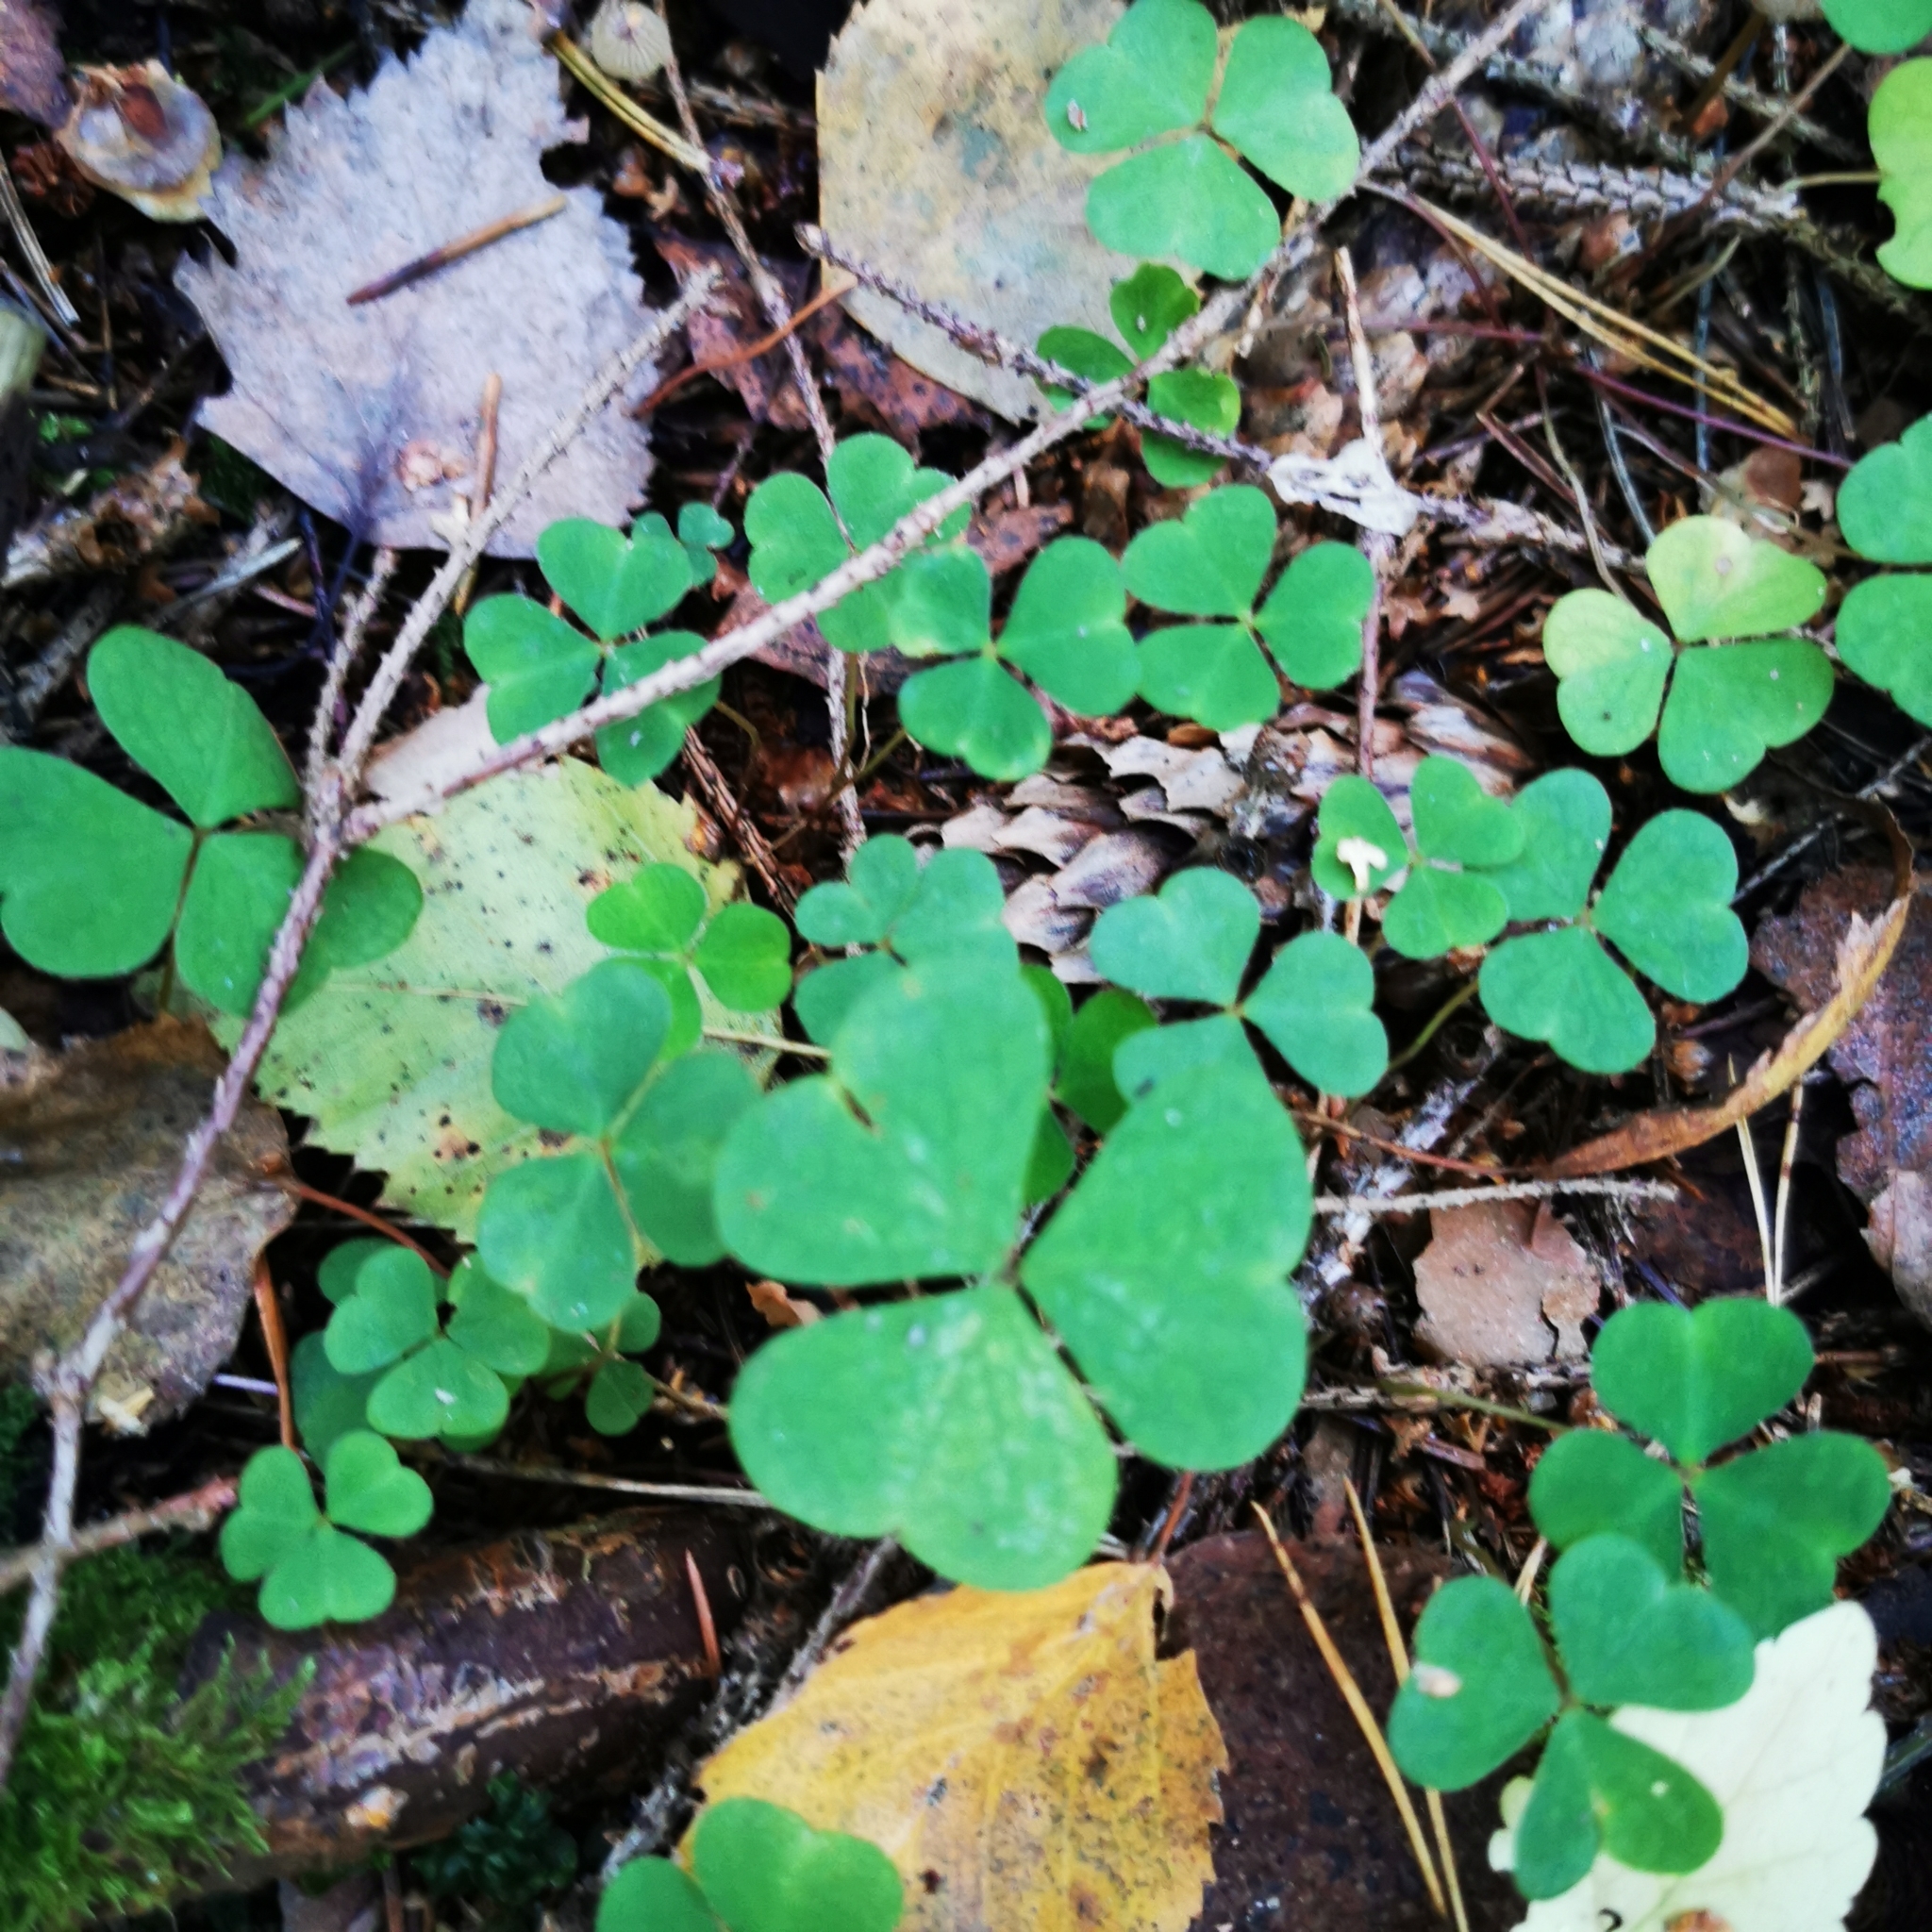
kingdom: Plantae
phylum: Tracheophyta
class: Magnoliopsida
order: Oxalidales
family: Oxalidaceae
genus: Oxalis
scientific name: Oxalis acetosella
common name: Wood-sorrel
